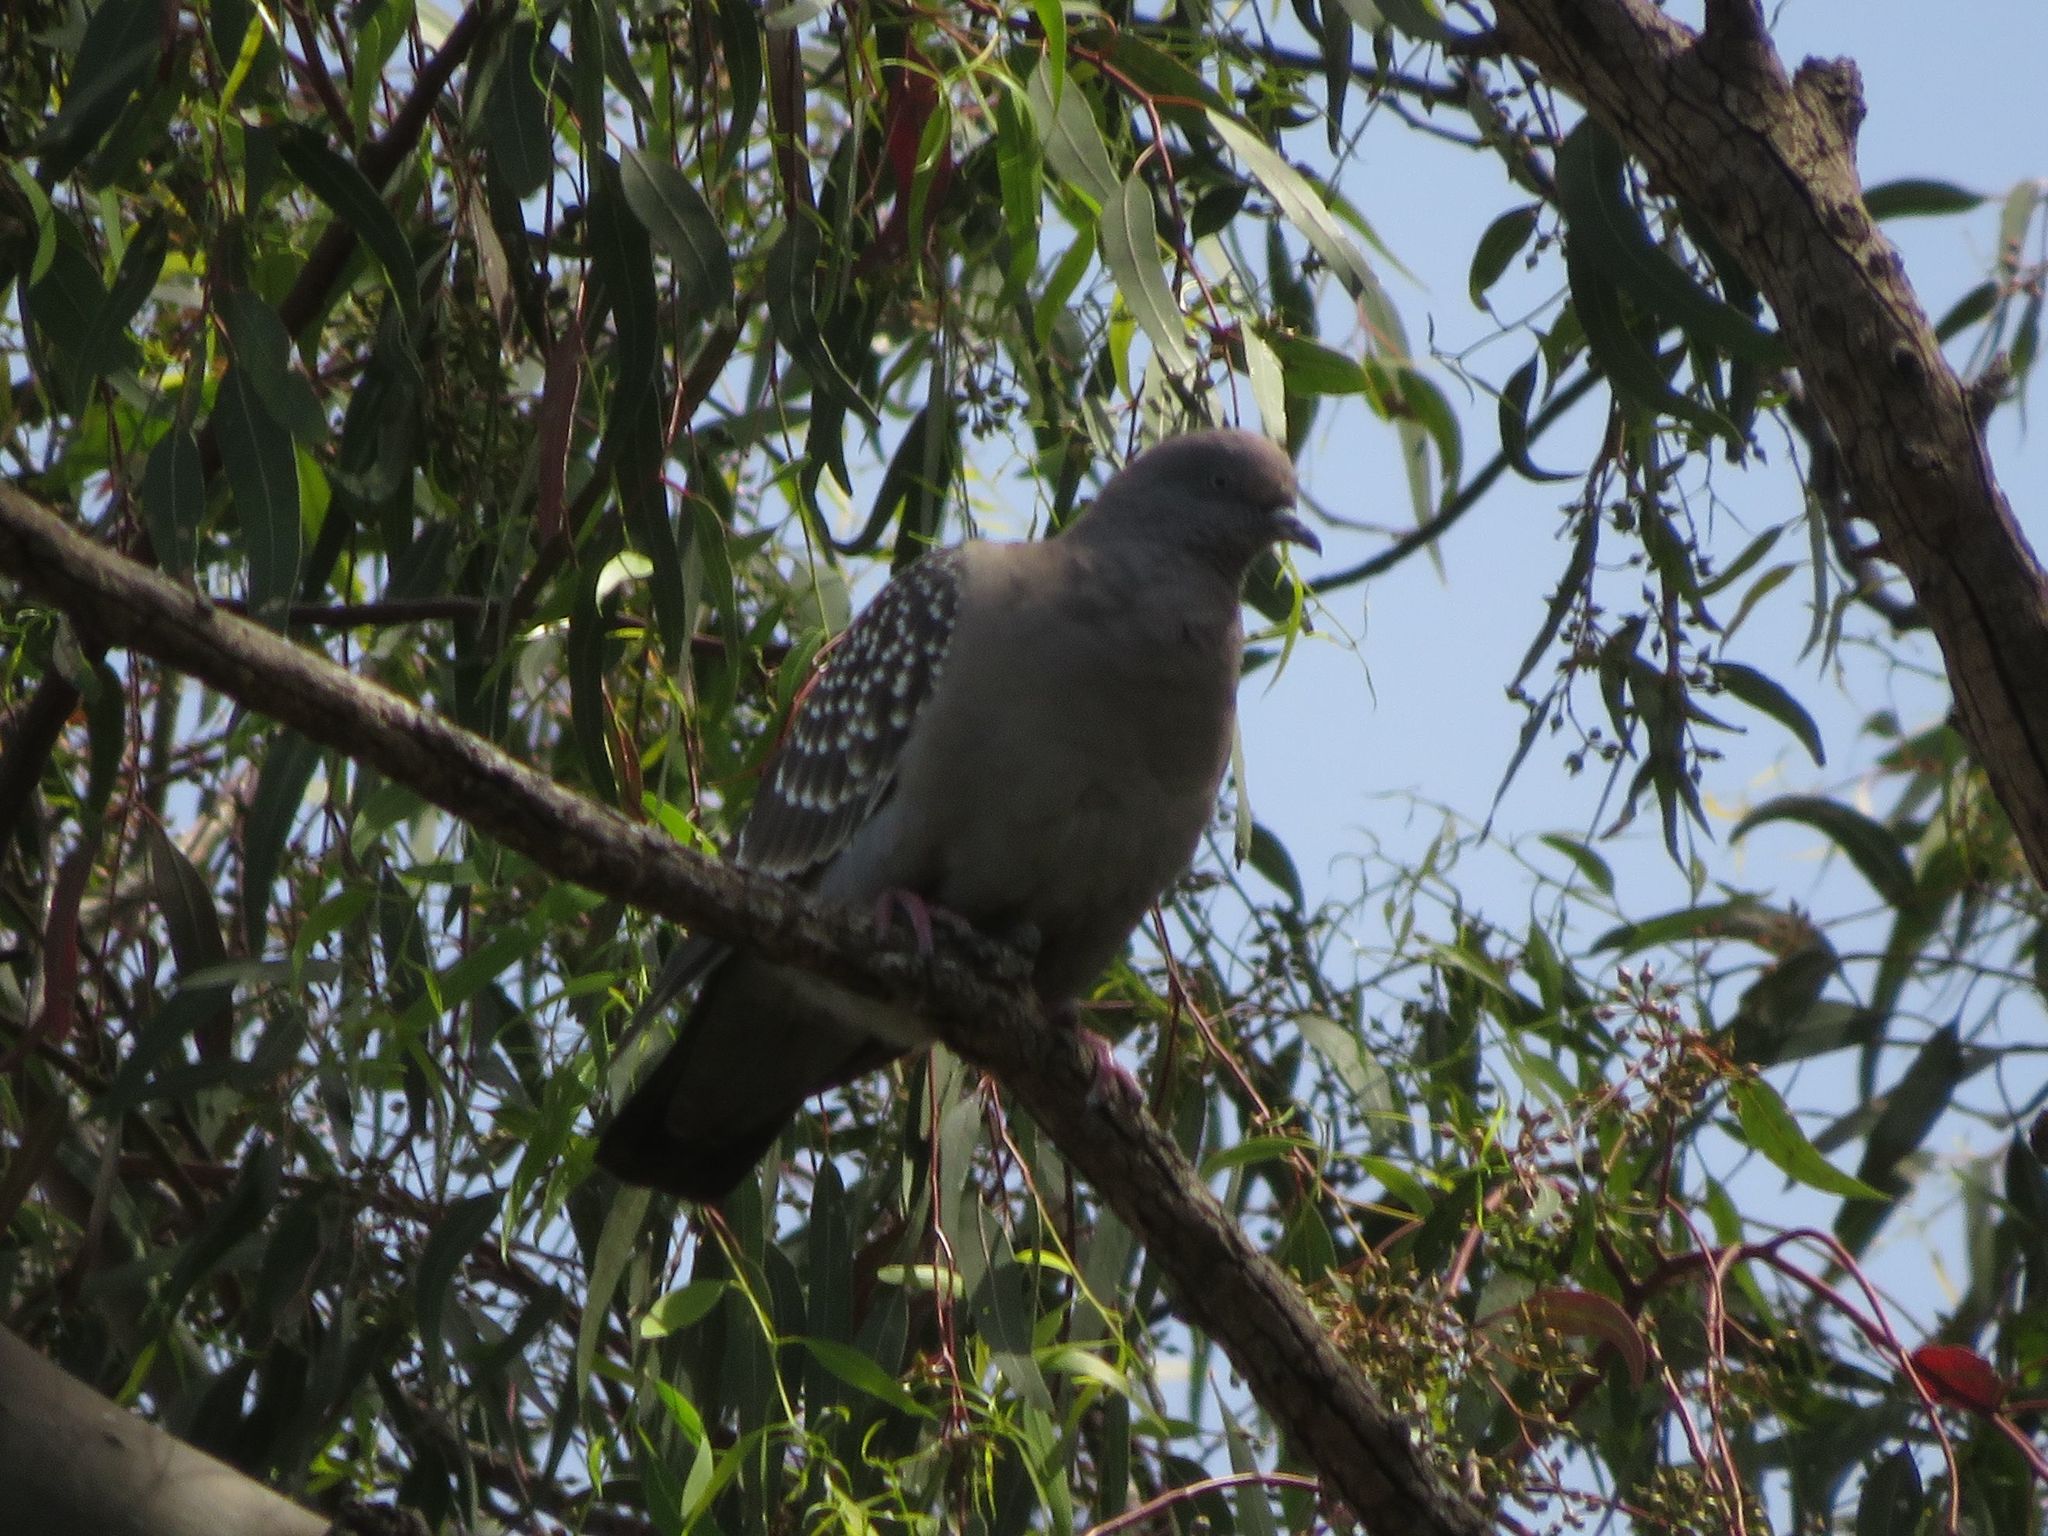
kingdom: Animalia
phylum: Chordata
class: Aves
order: Columbiformes
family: Columbidae
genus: Patagioenas
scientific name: Patagioenas maculosa
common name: Spot-winged pigeon
